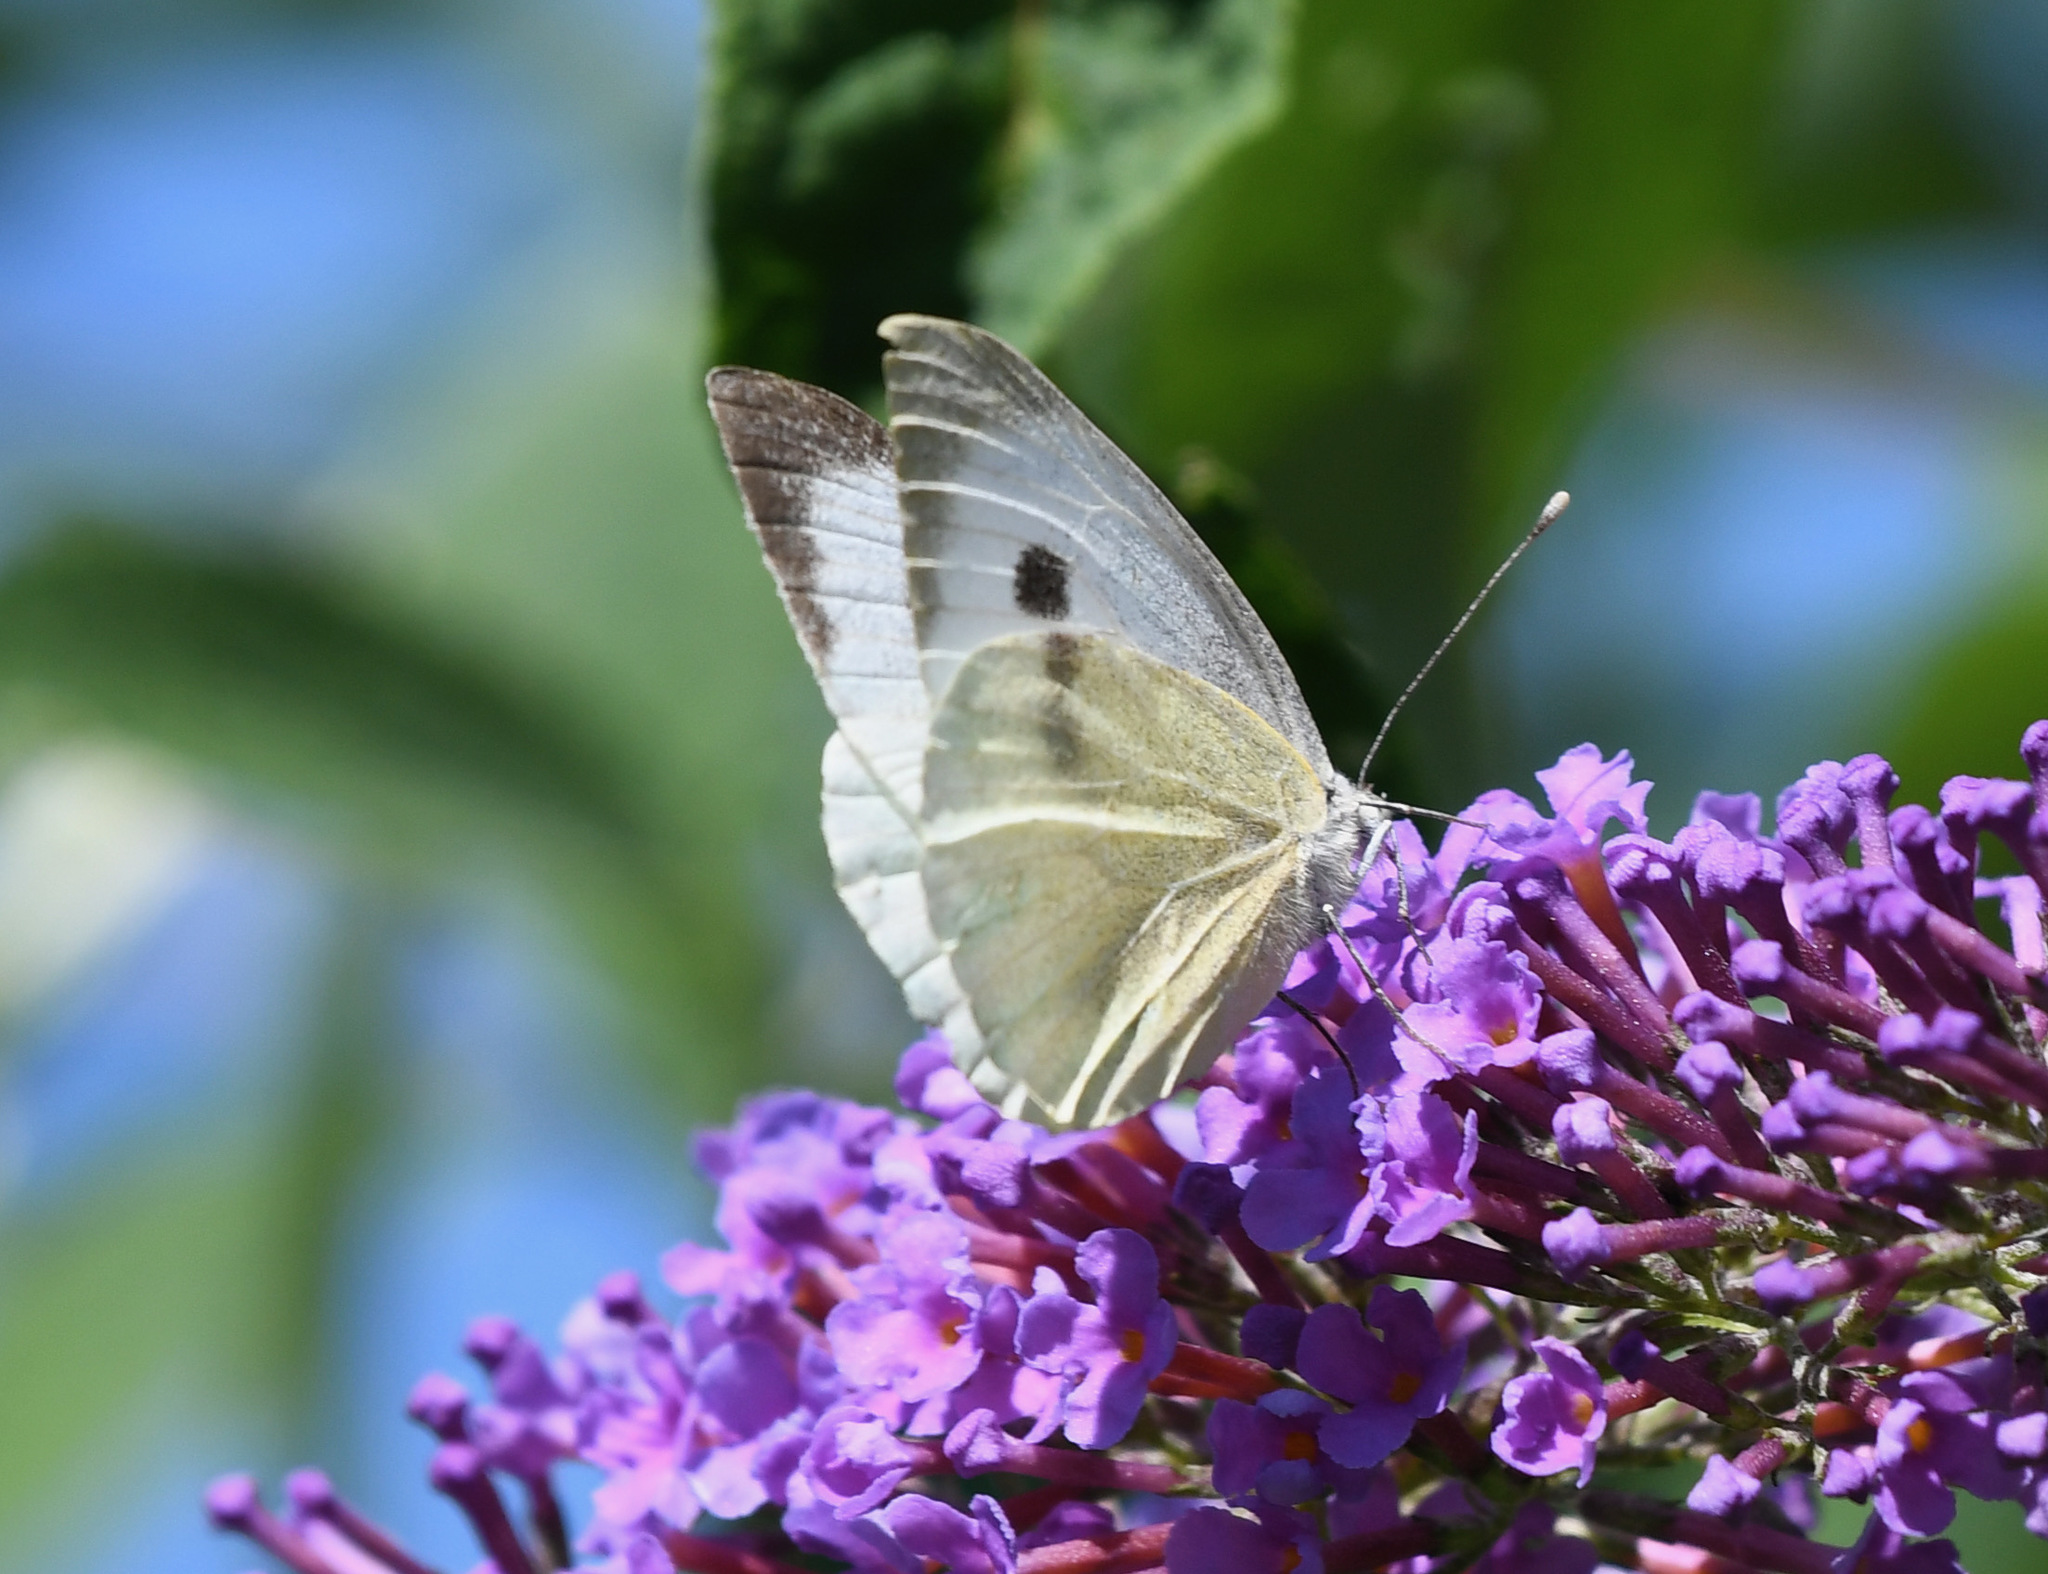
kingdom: Animalia
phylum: Arthropoda
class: Insecta
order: Lepidoptera
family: Pieridae
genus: Pieris
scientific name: Pieris brassicae
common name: Large white
